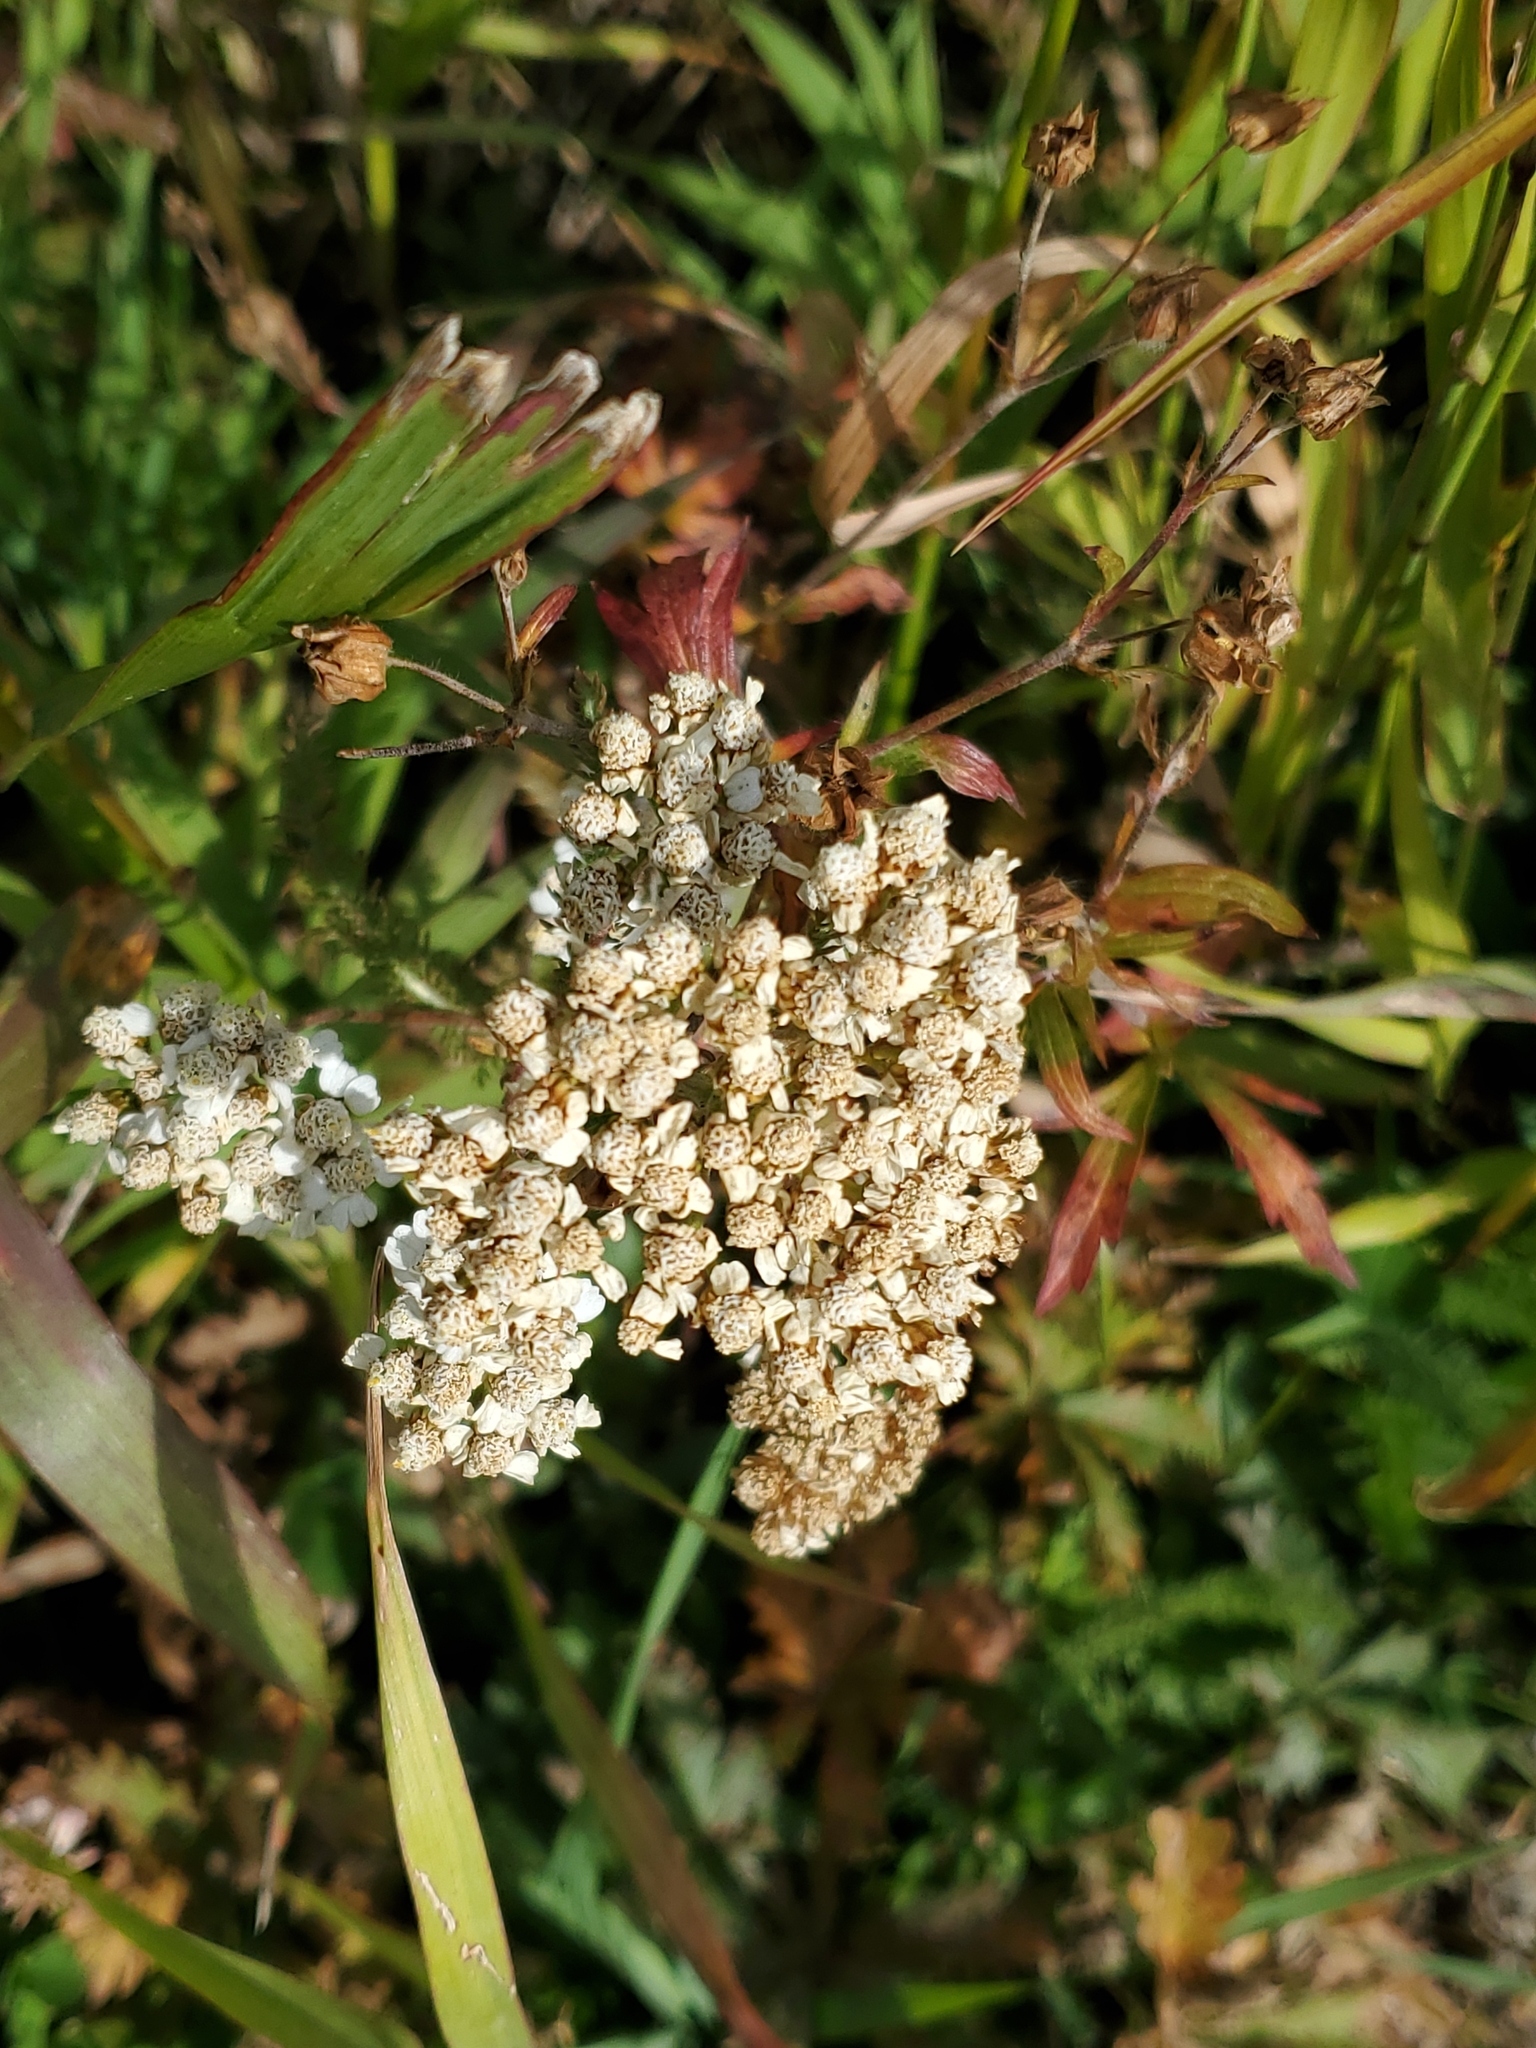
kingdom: Plantae
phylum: Tracheophyta
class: Magnoliopsida
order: Asterales
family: Asteraceae
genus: Achillea
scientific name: Achillea millefolium
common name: Yarrow
